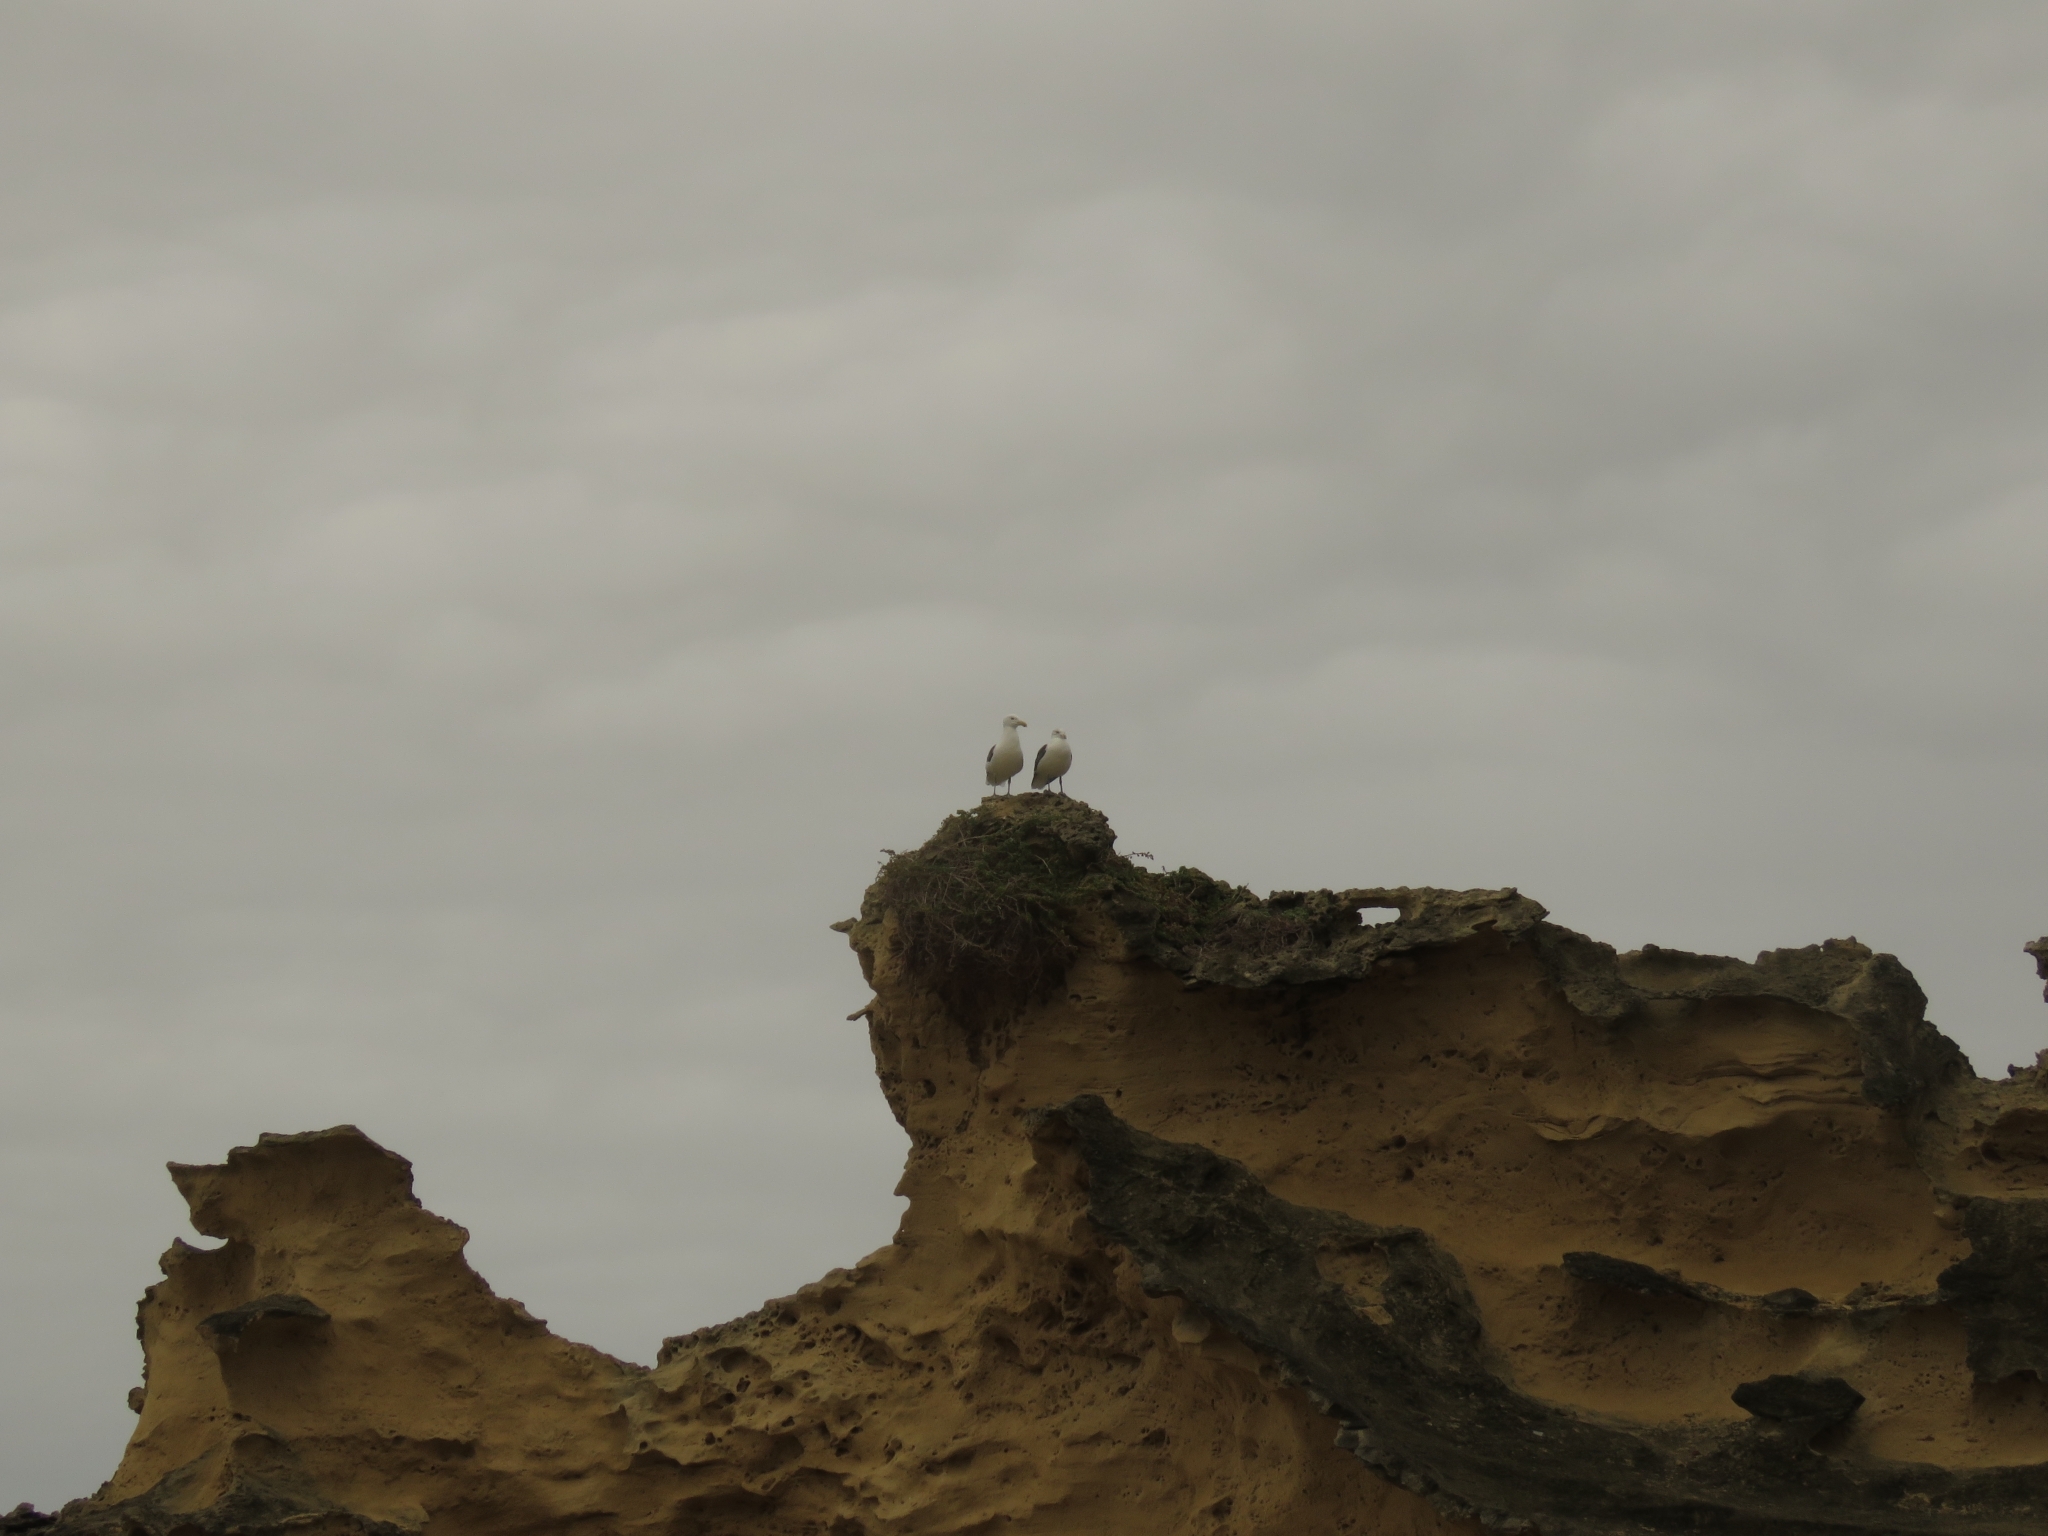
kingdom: Animalia
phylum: Chordata
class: Aves
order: Charadriiformes
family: Laridae
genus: Larus
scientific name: Larus dominicanus
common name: Kelp gull
